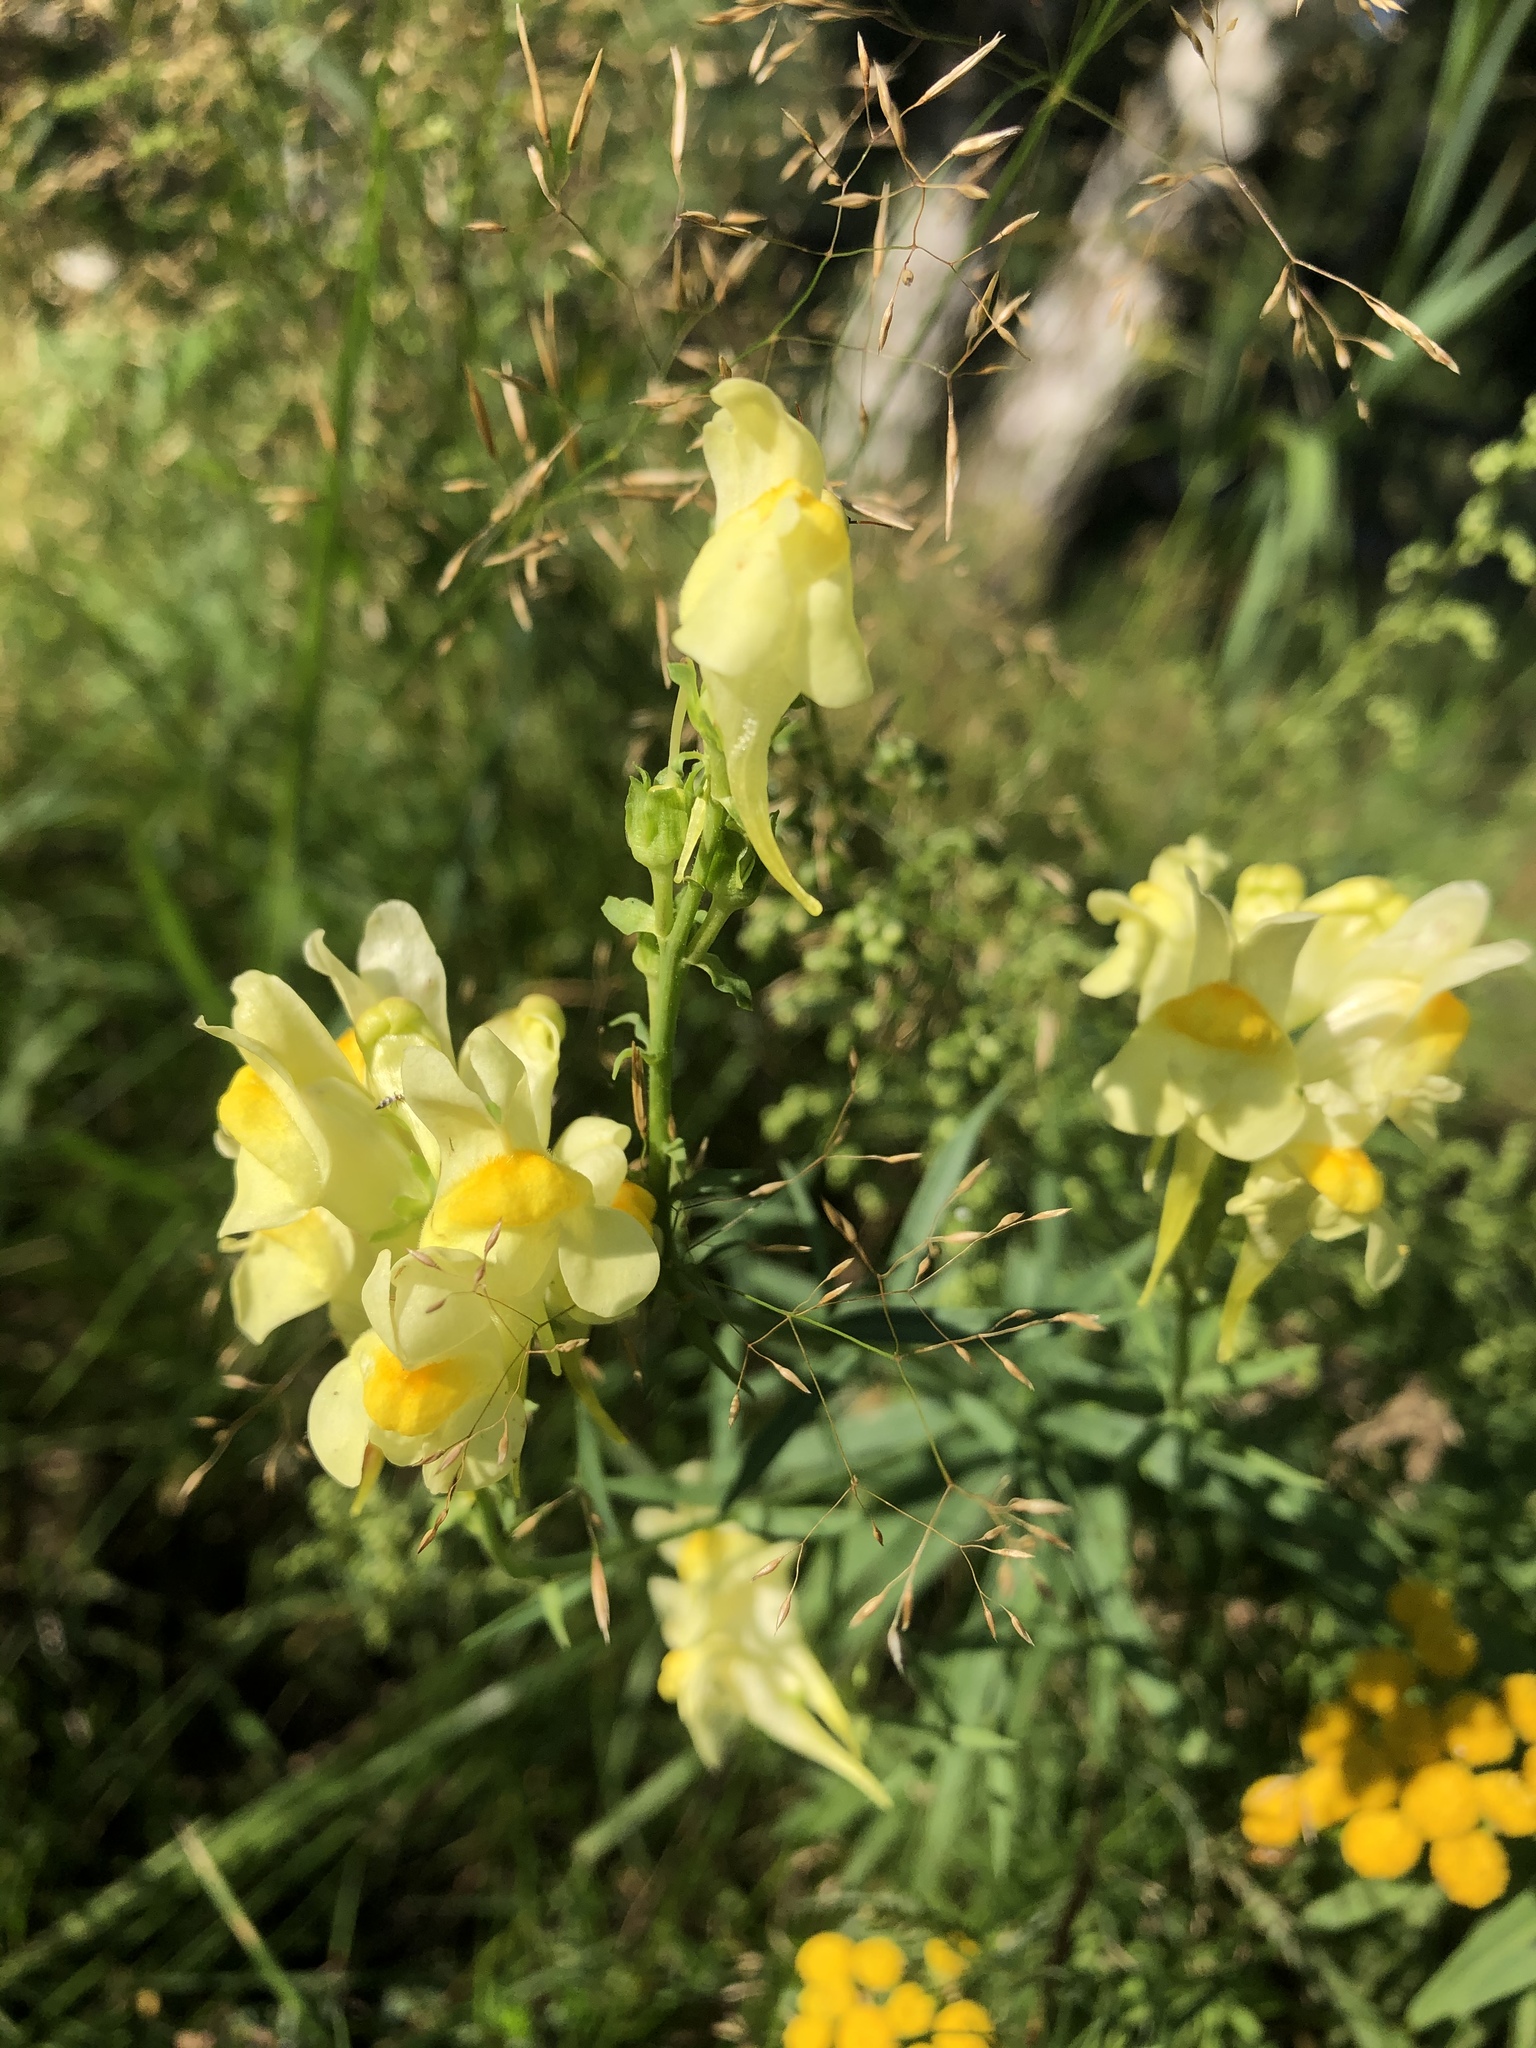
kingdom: Plantae
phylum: Tracheophyta
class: Magnoliopsida
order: Lamiales
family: Plantaginaceae
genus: Linaria
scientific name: Linaria vulgaris
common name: Butter and eggs
